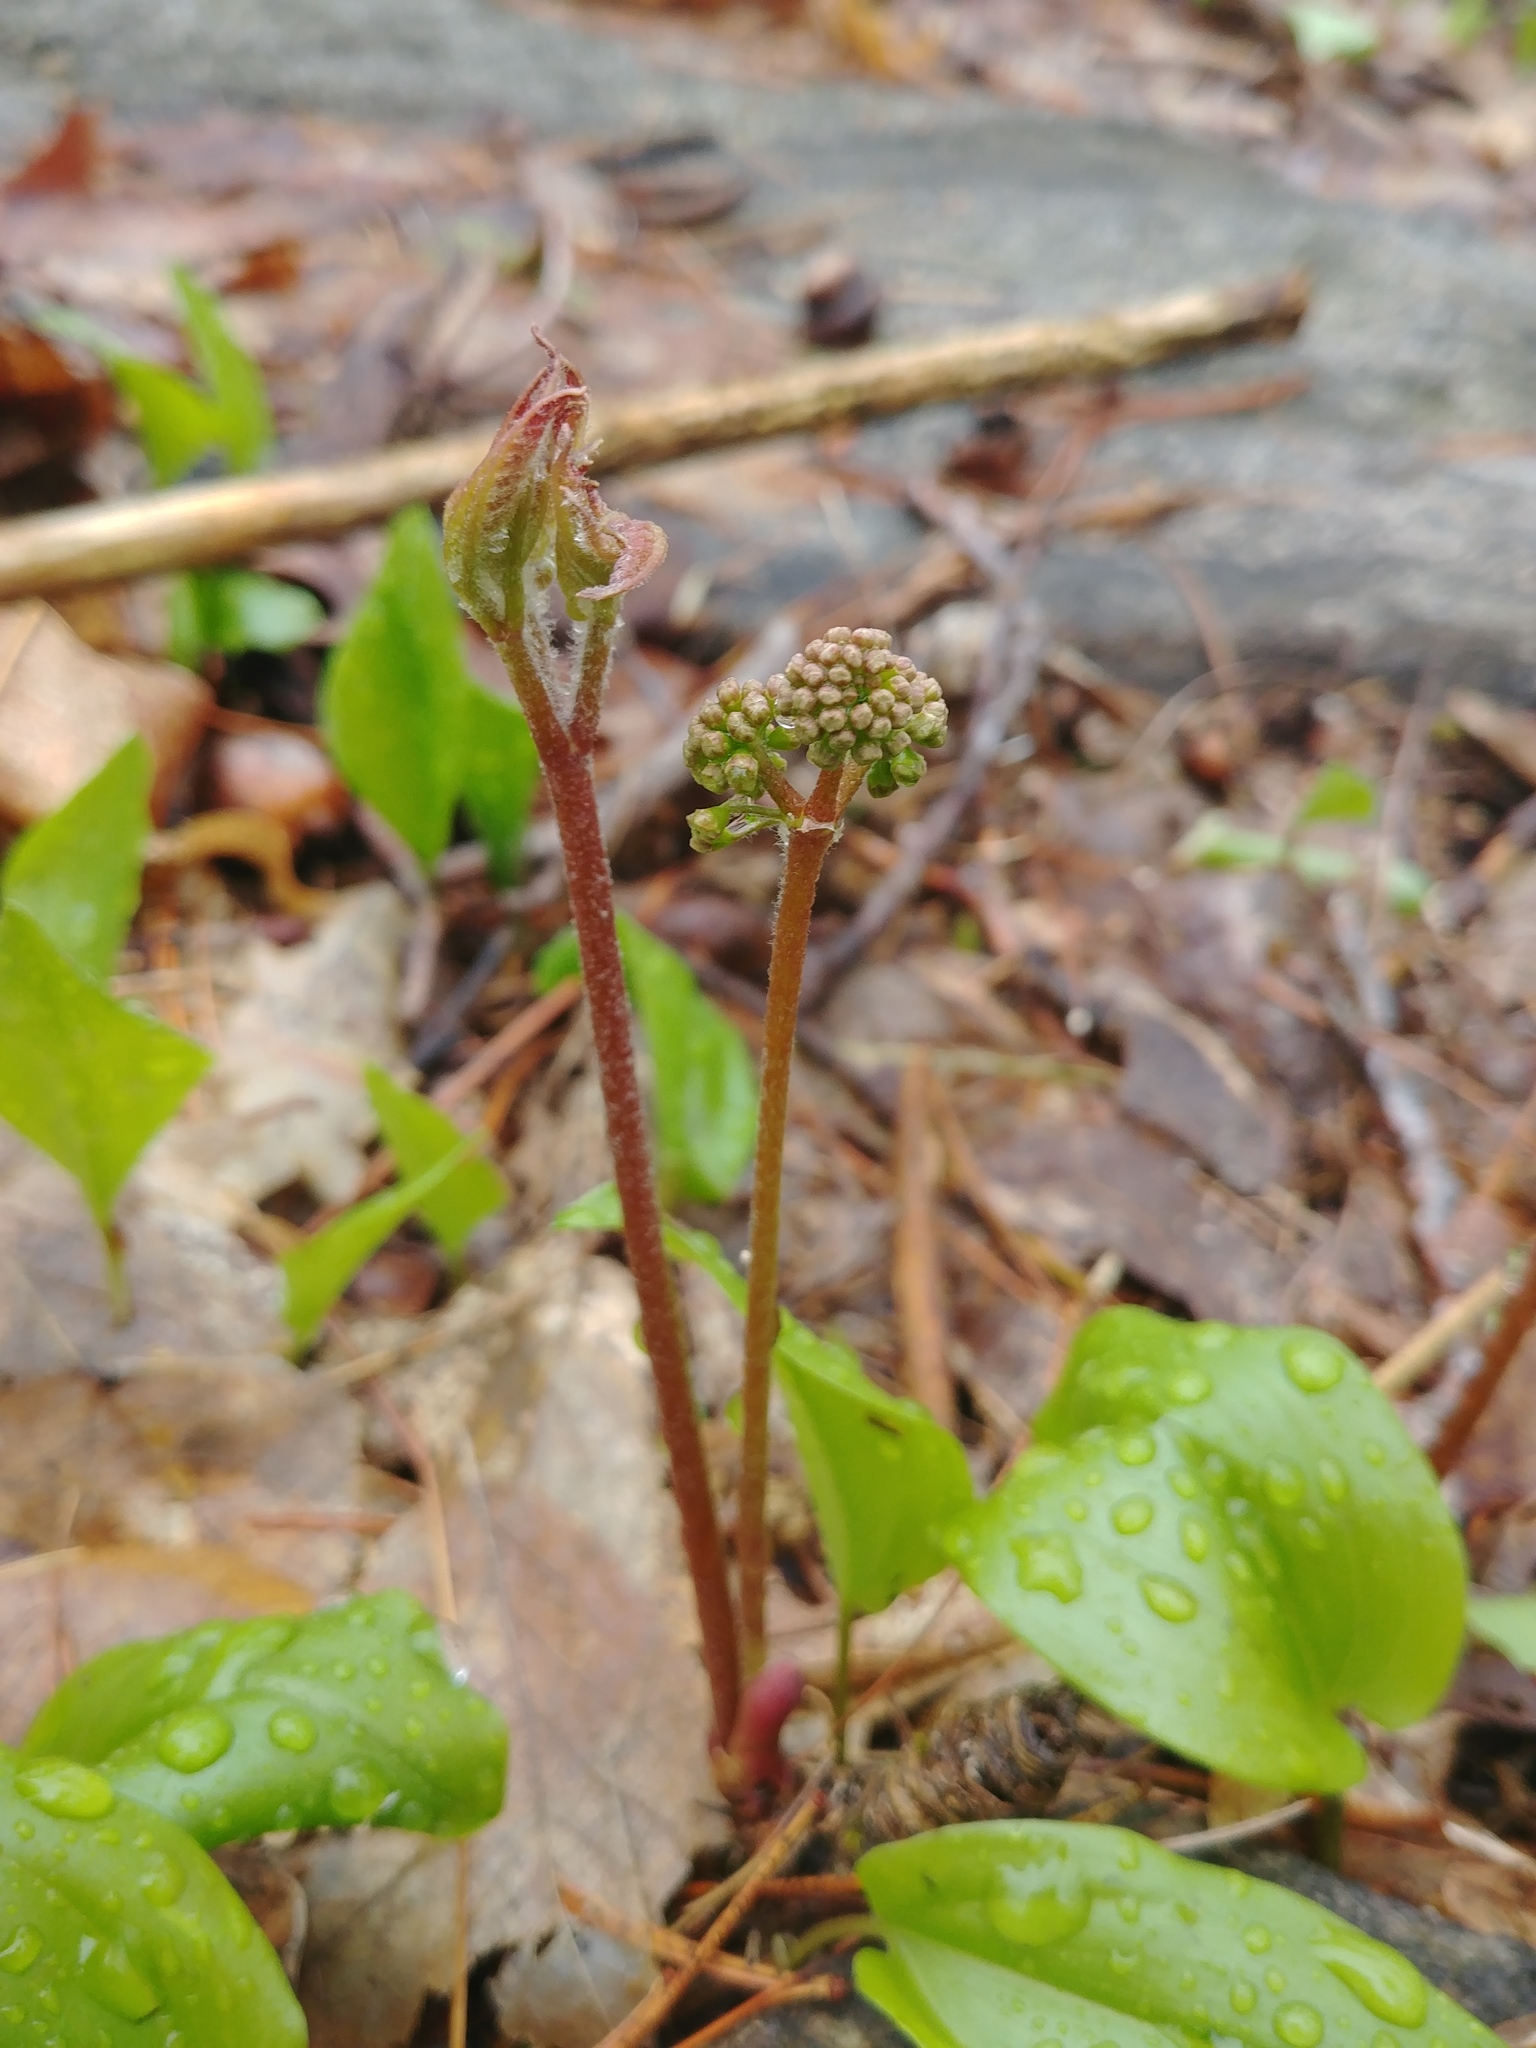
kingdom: Plantae
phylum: Tracheophyta
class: Magnoliopsida
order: Apiales
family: Araliaceae
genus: Aralia
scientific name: Aralia nudicaulis
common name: Wild sarsaparilla
